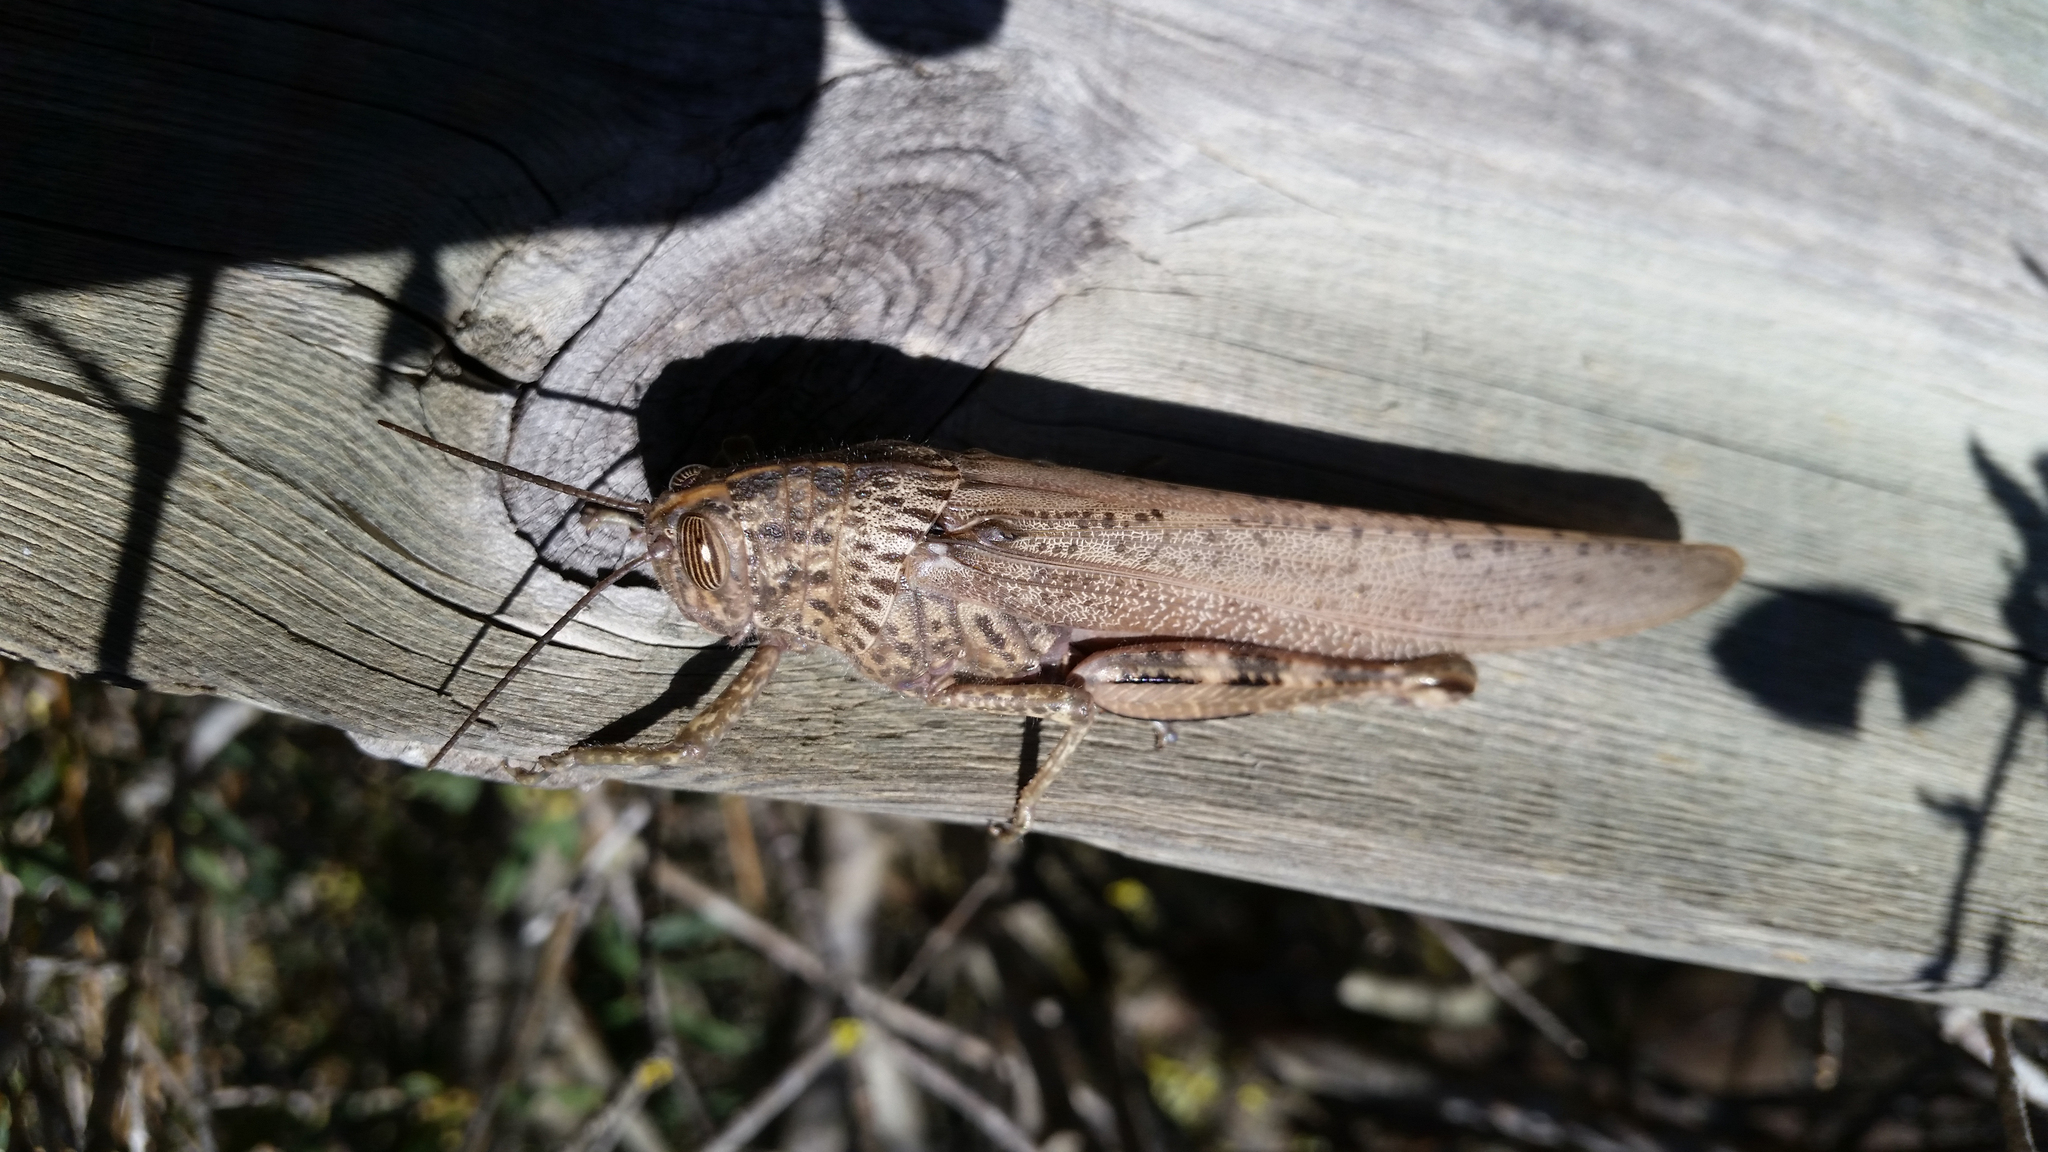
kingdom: Animalia
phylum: Arthropoda
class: Insecta
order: Orthoptera
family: Acrididae
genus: Anacridium
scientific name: Anacridium aegyptium
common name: Egyptian grasshopper
